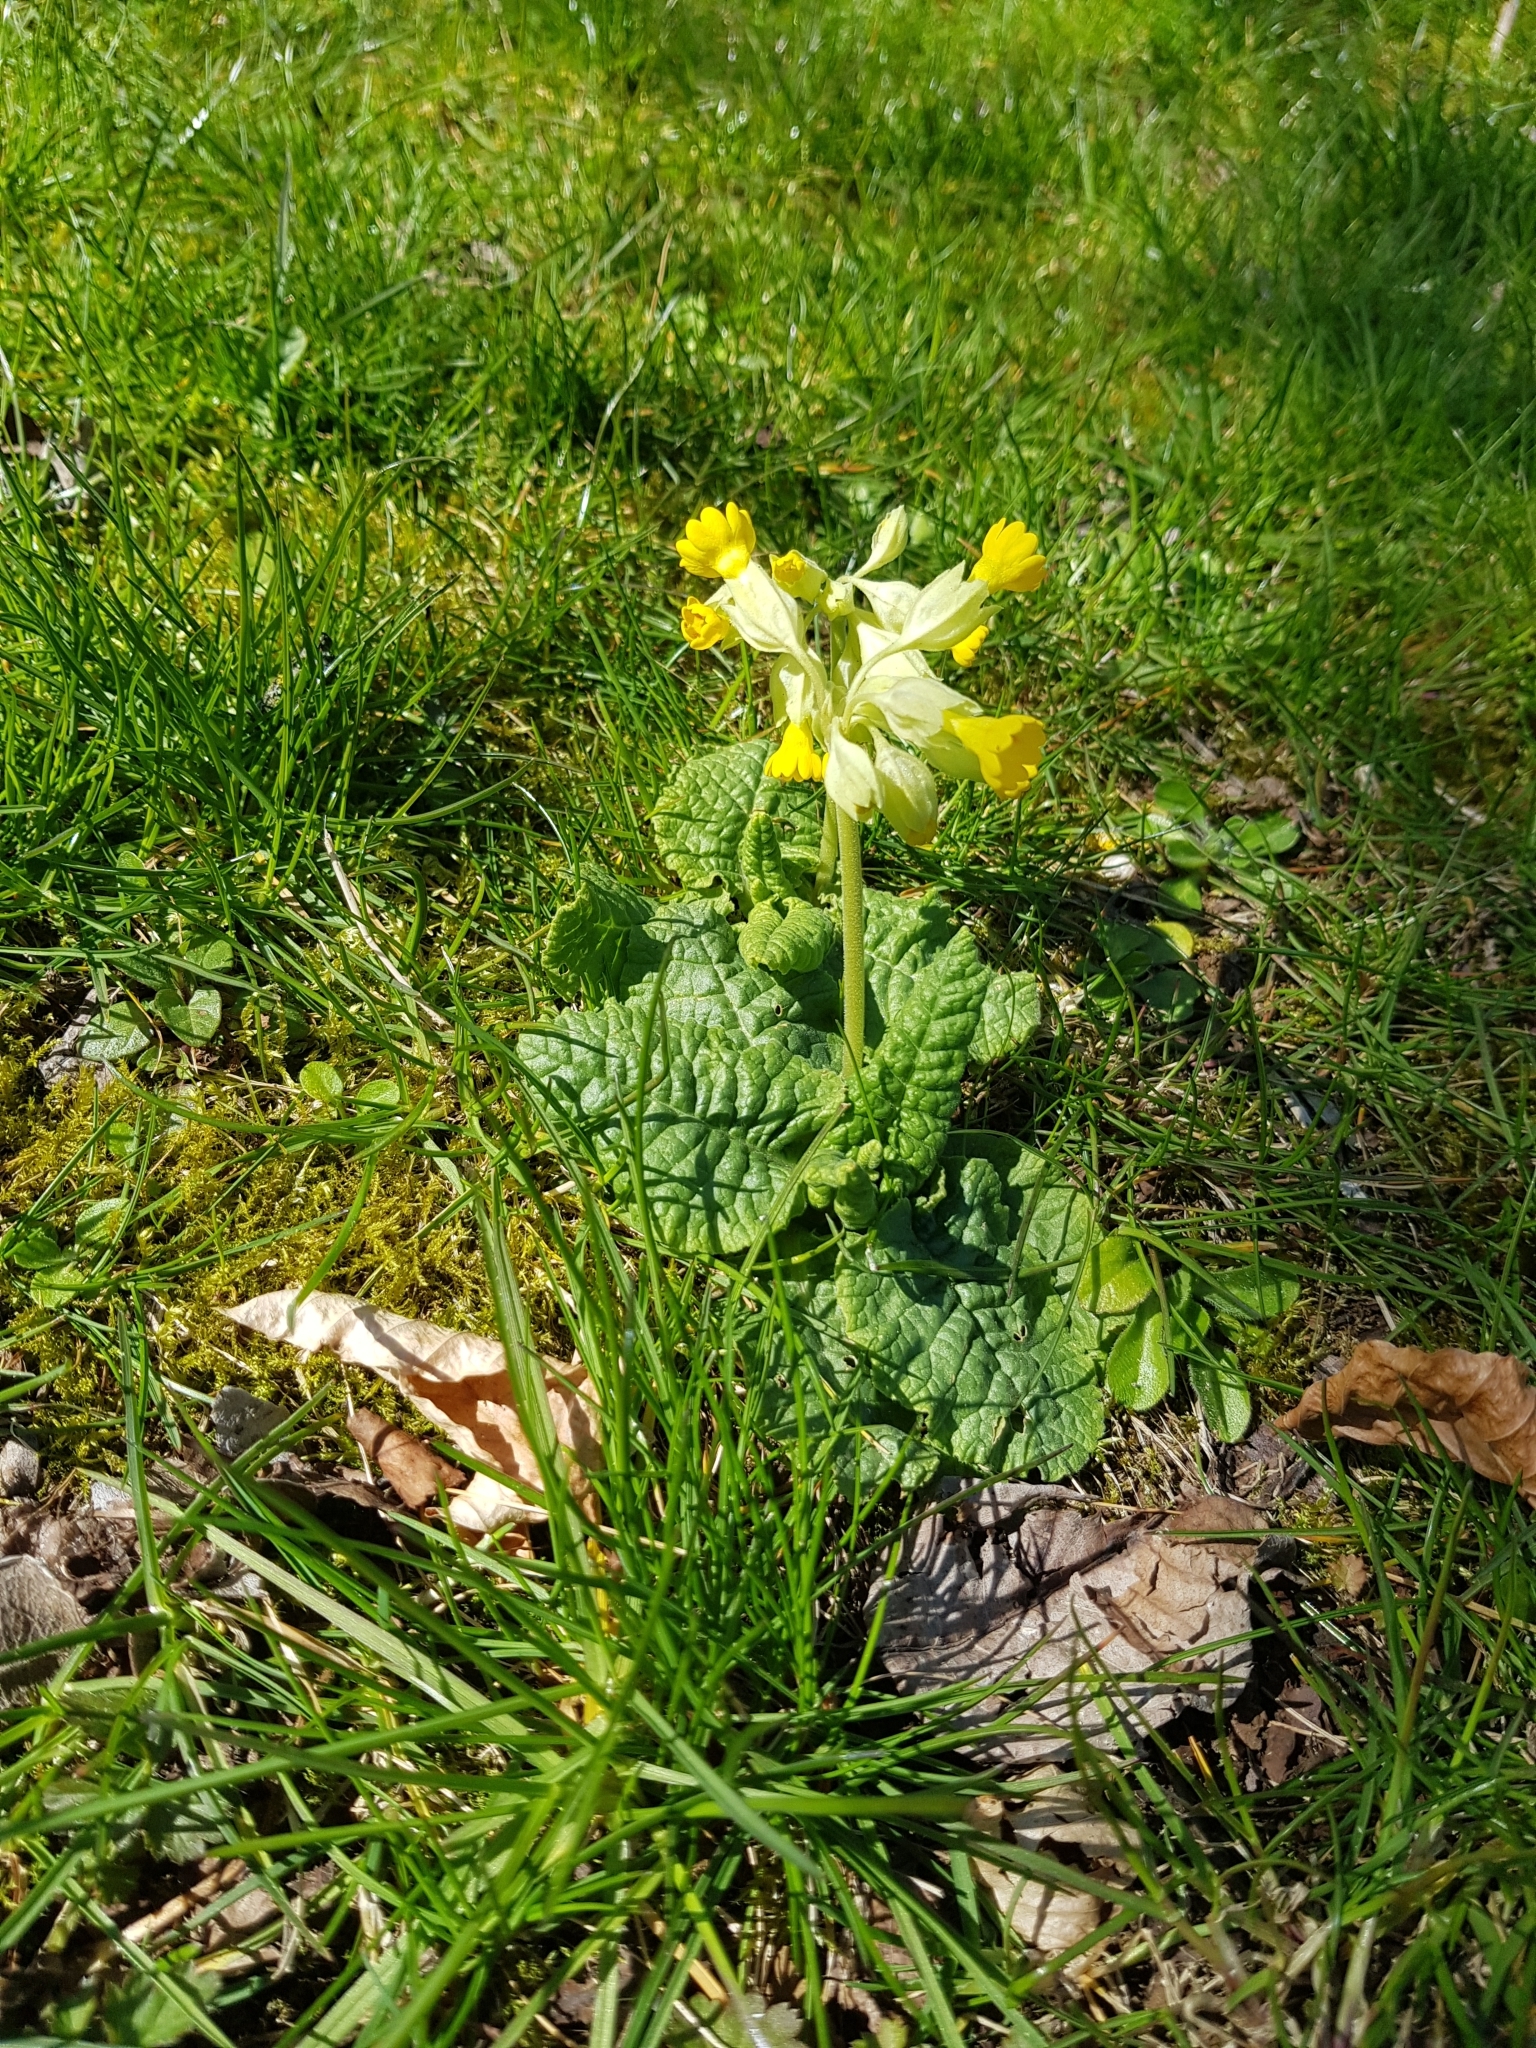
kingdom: Plantae
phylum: Tracheophyta
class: Magnoliopsida
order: Ericales
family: Primulaceae
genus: Primula
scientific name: Primula veris
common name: Cowslip
